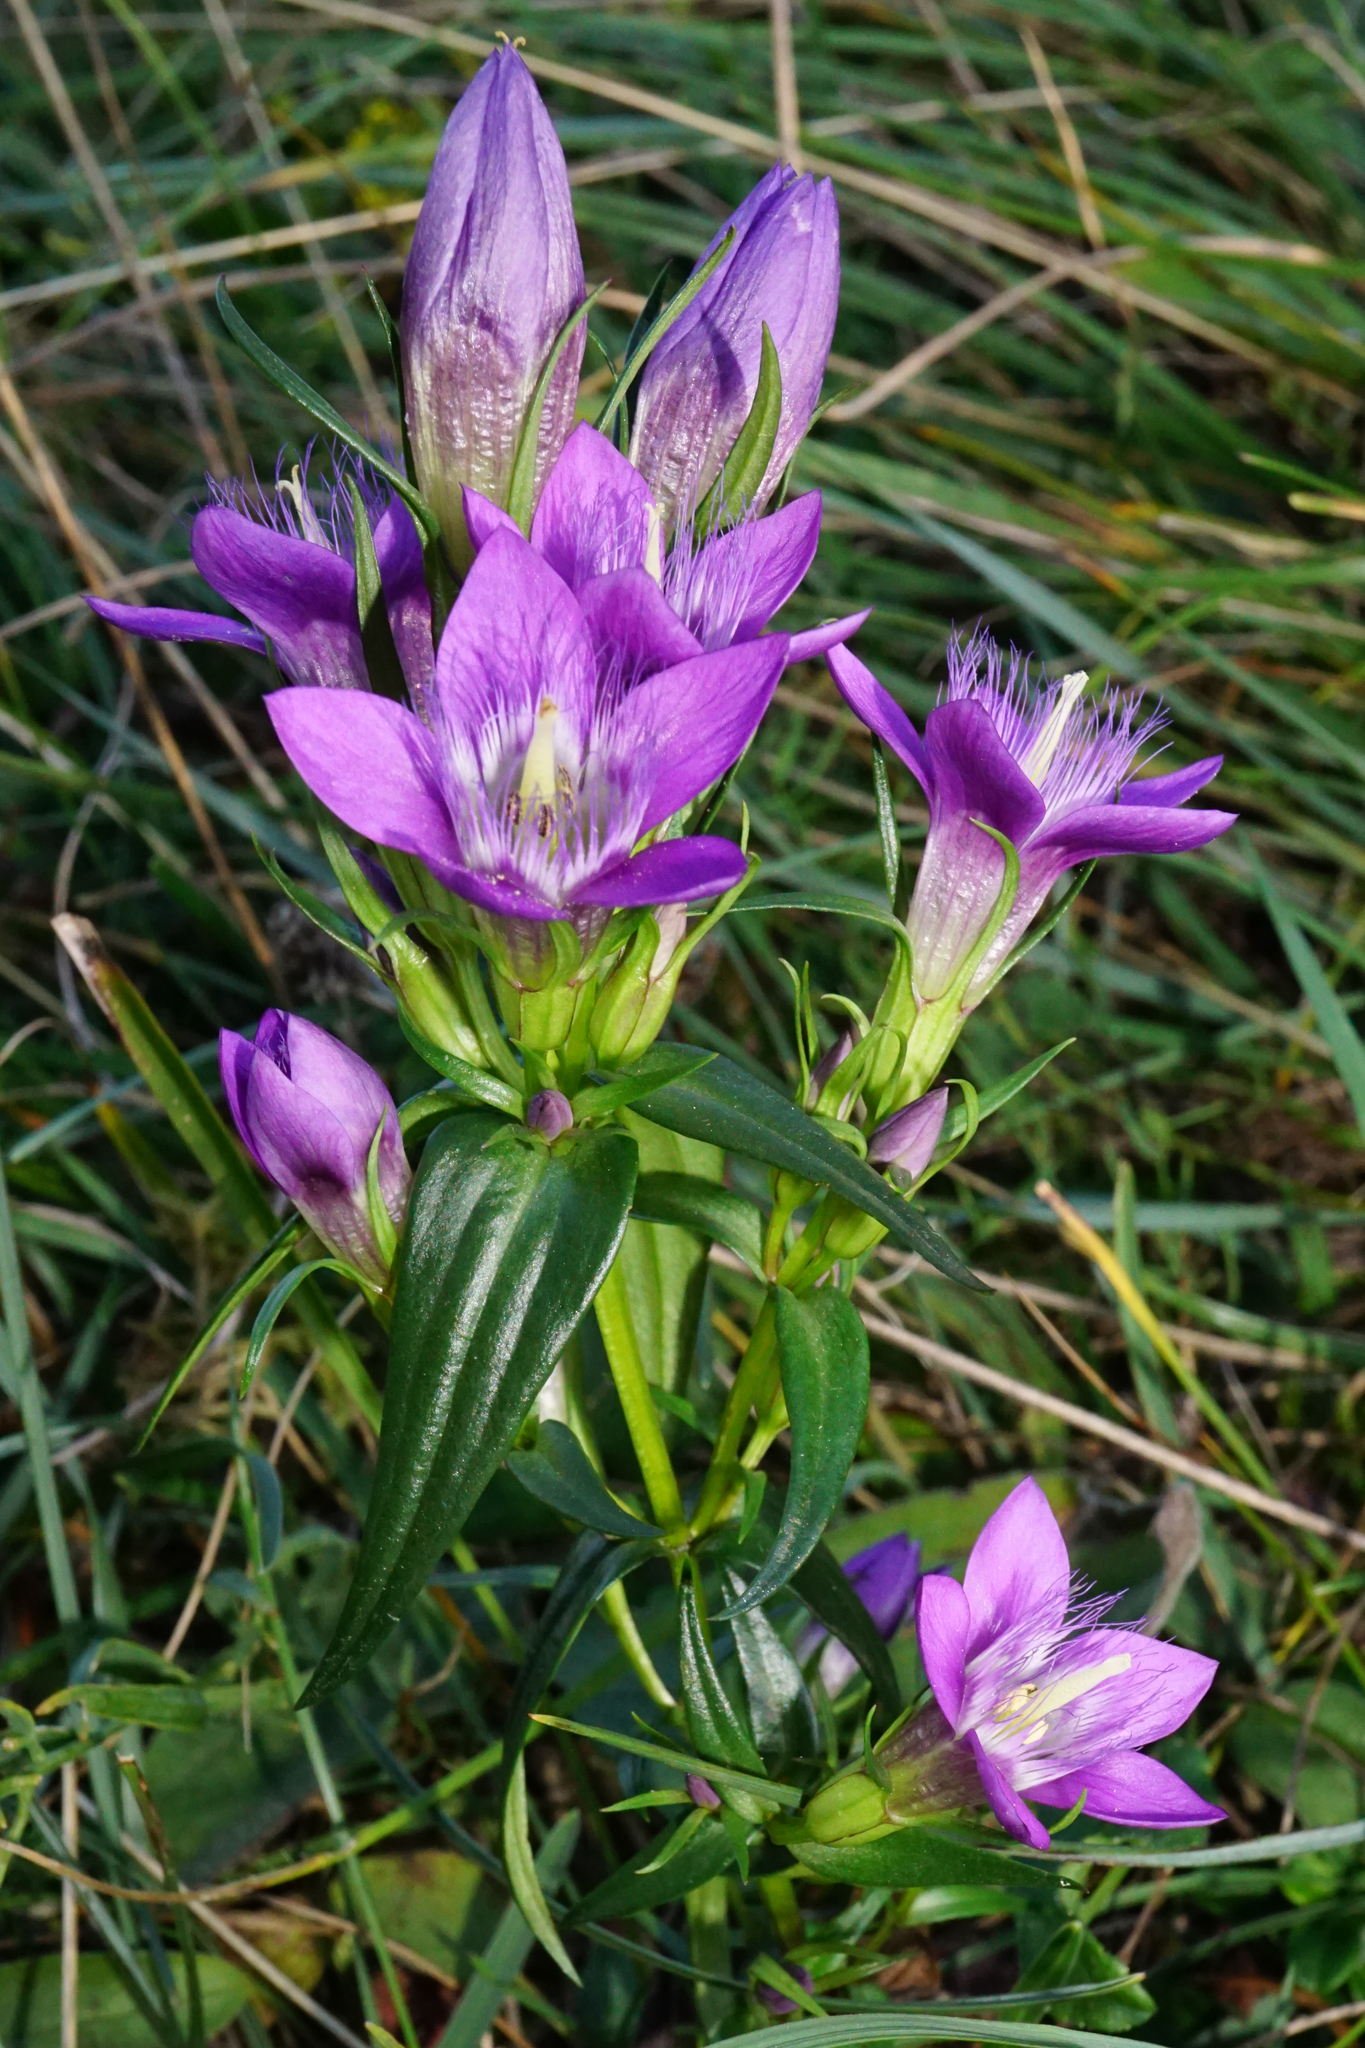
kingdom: Plantae
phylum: Tracheophyta
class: Magnoliopsida
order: Gentianales
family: Gentianaceae
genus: Gentianella
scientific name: Gentianella austriaca
